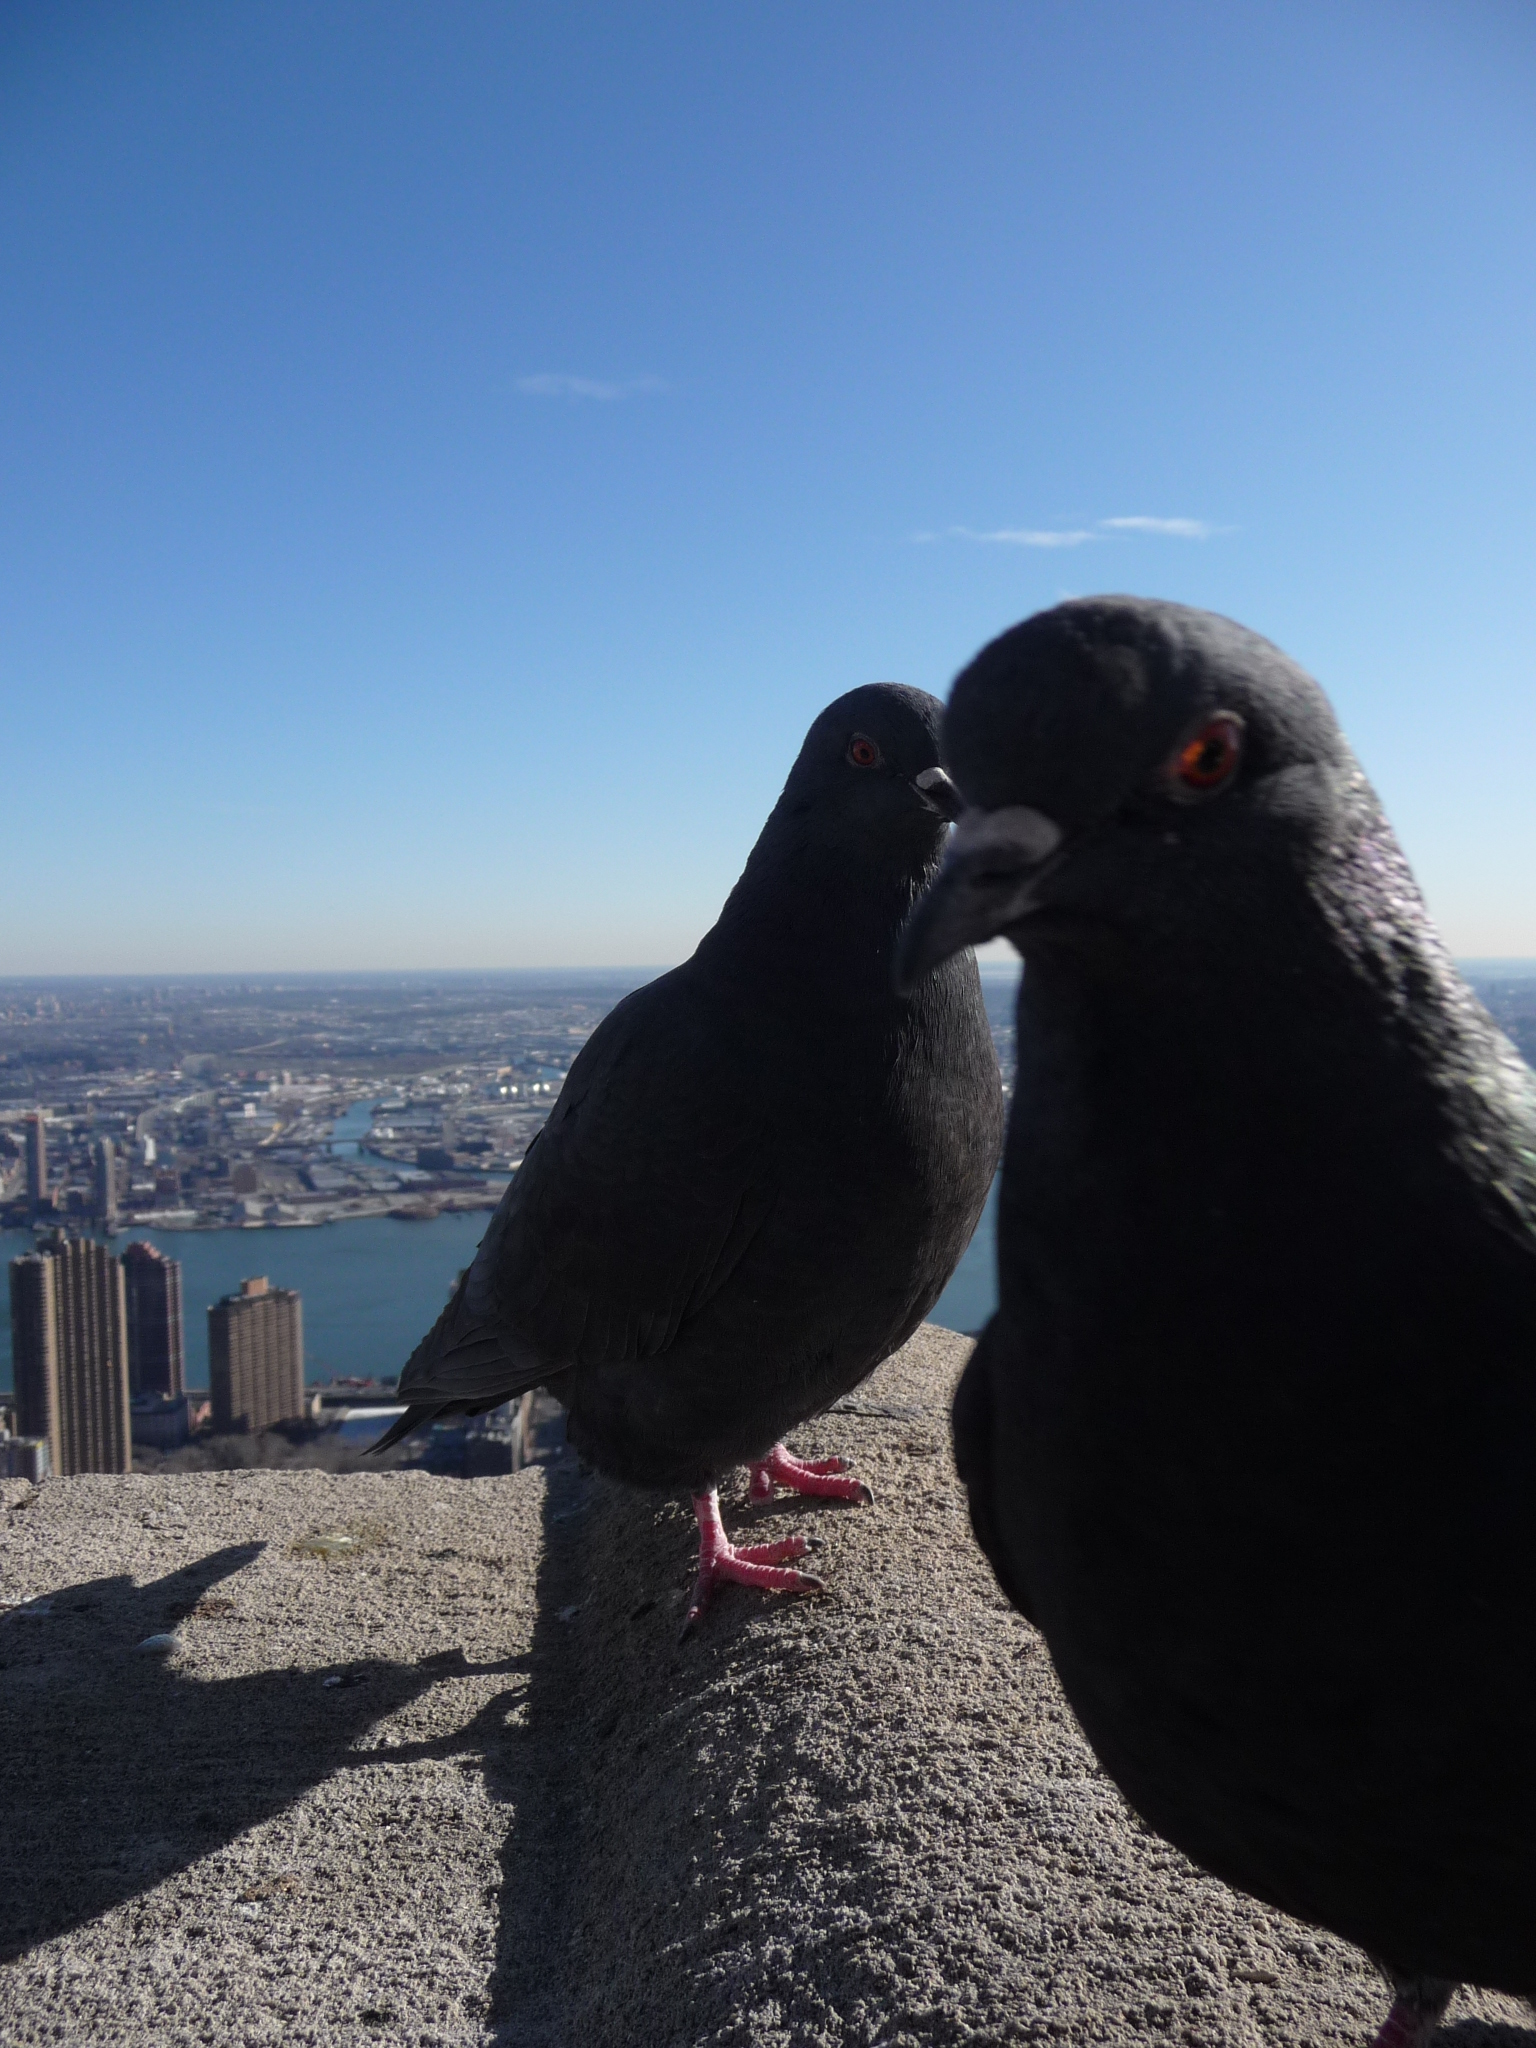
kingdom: Animalia
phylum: Chordata
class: Aves
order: Columbiformes
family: Columbidae
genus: Columba
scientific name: Columba livia
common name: Rock pigeon
